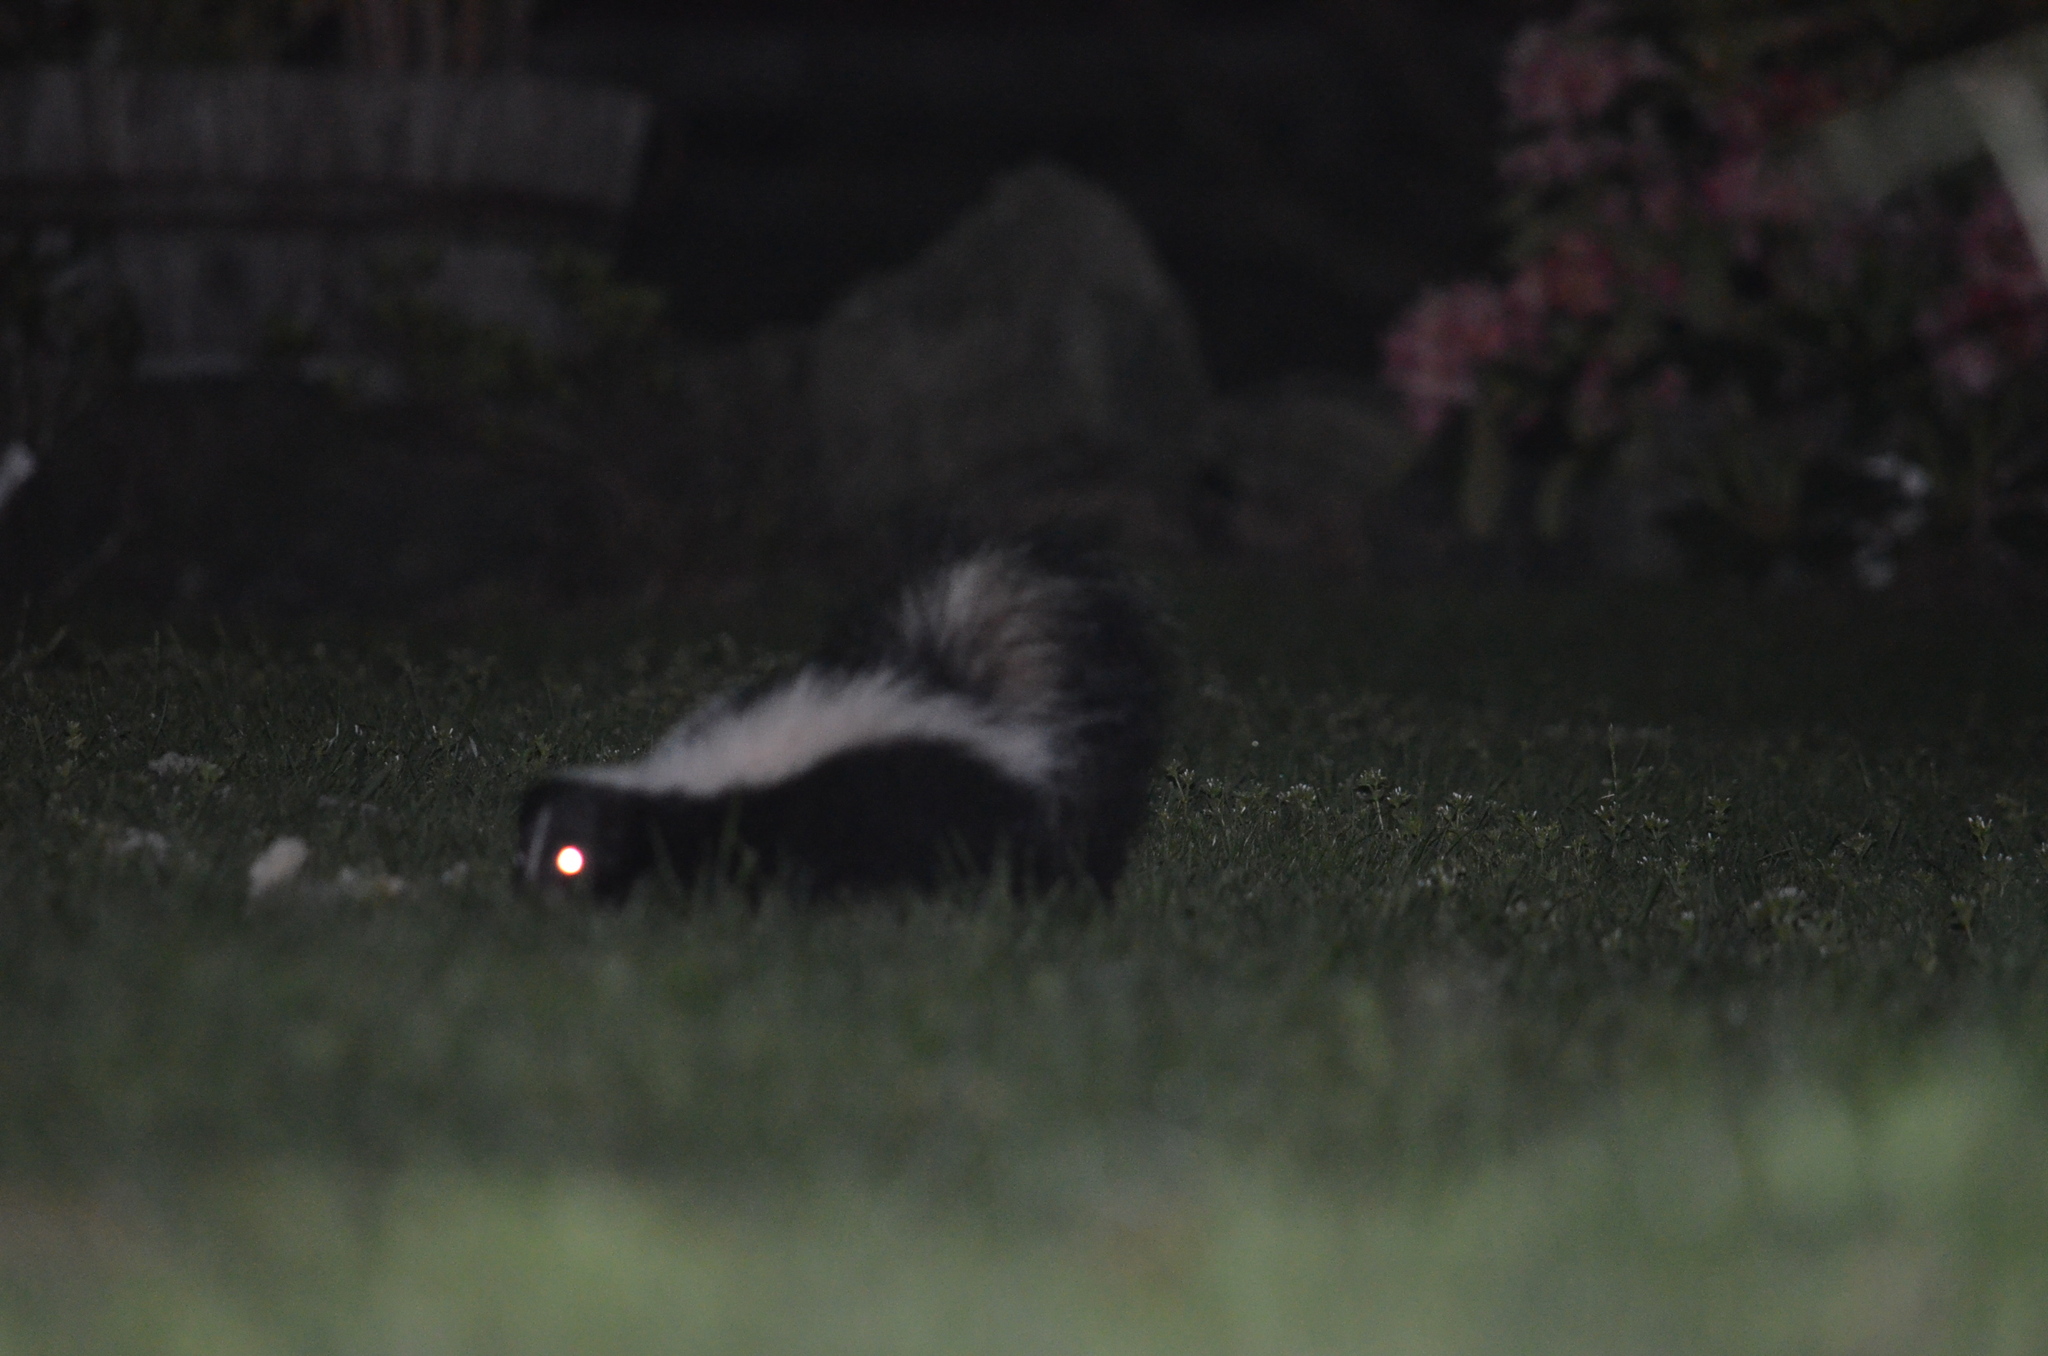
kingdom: Animalia
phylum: Chordata
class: Mammalia
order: Carnivora
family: Mephitidae
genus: Mephitis
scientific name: Mephitis mephitis
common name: Striped skunk
